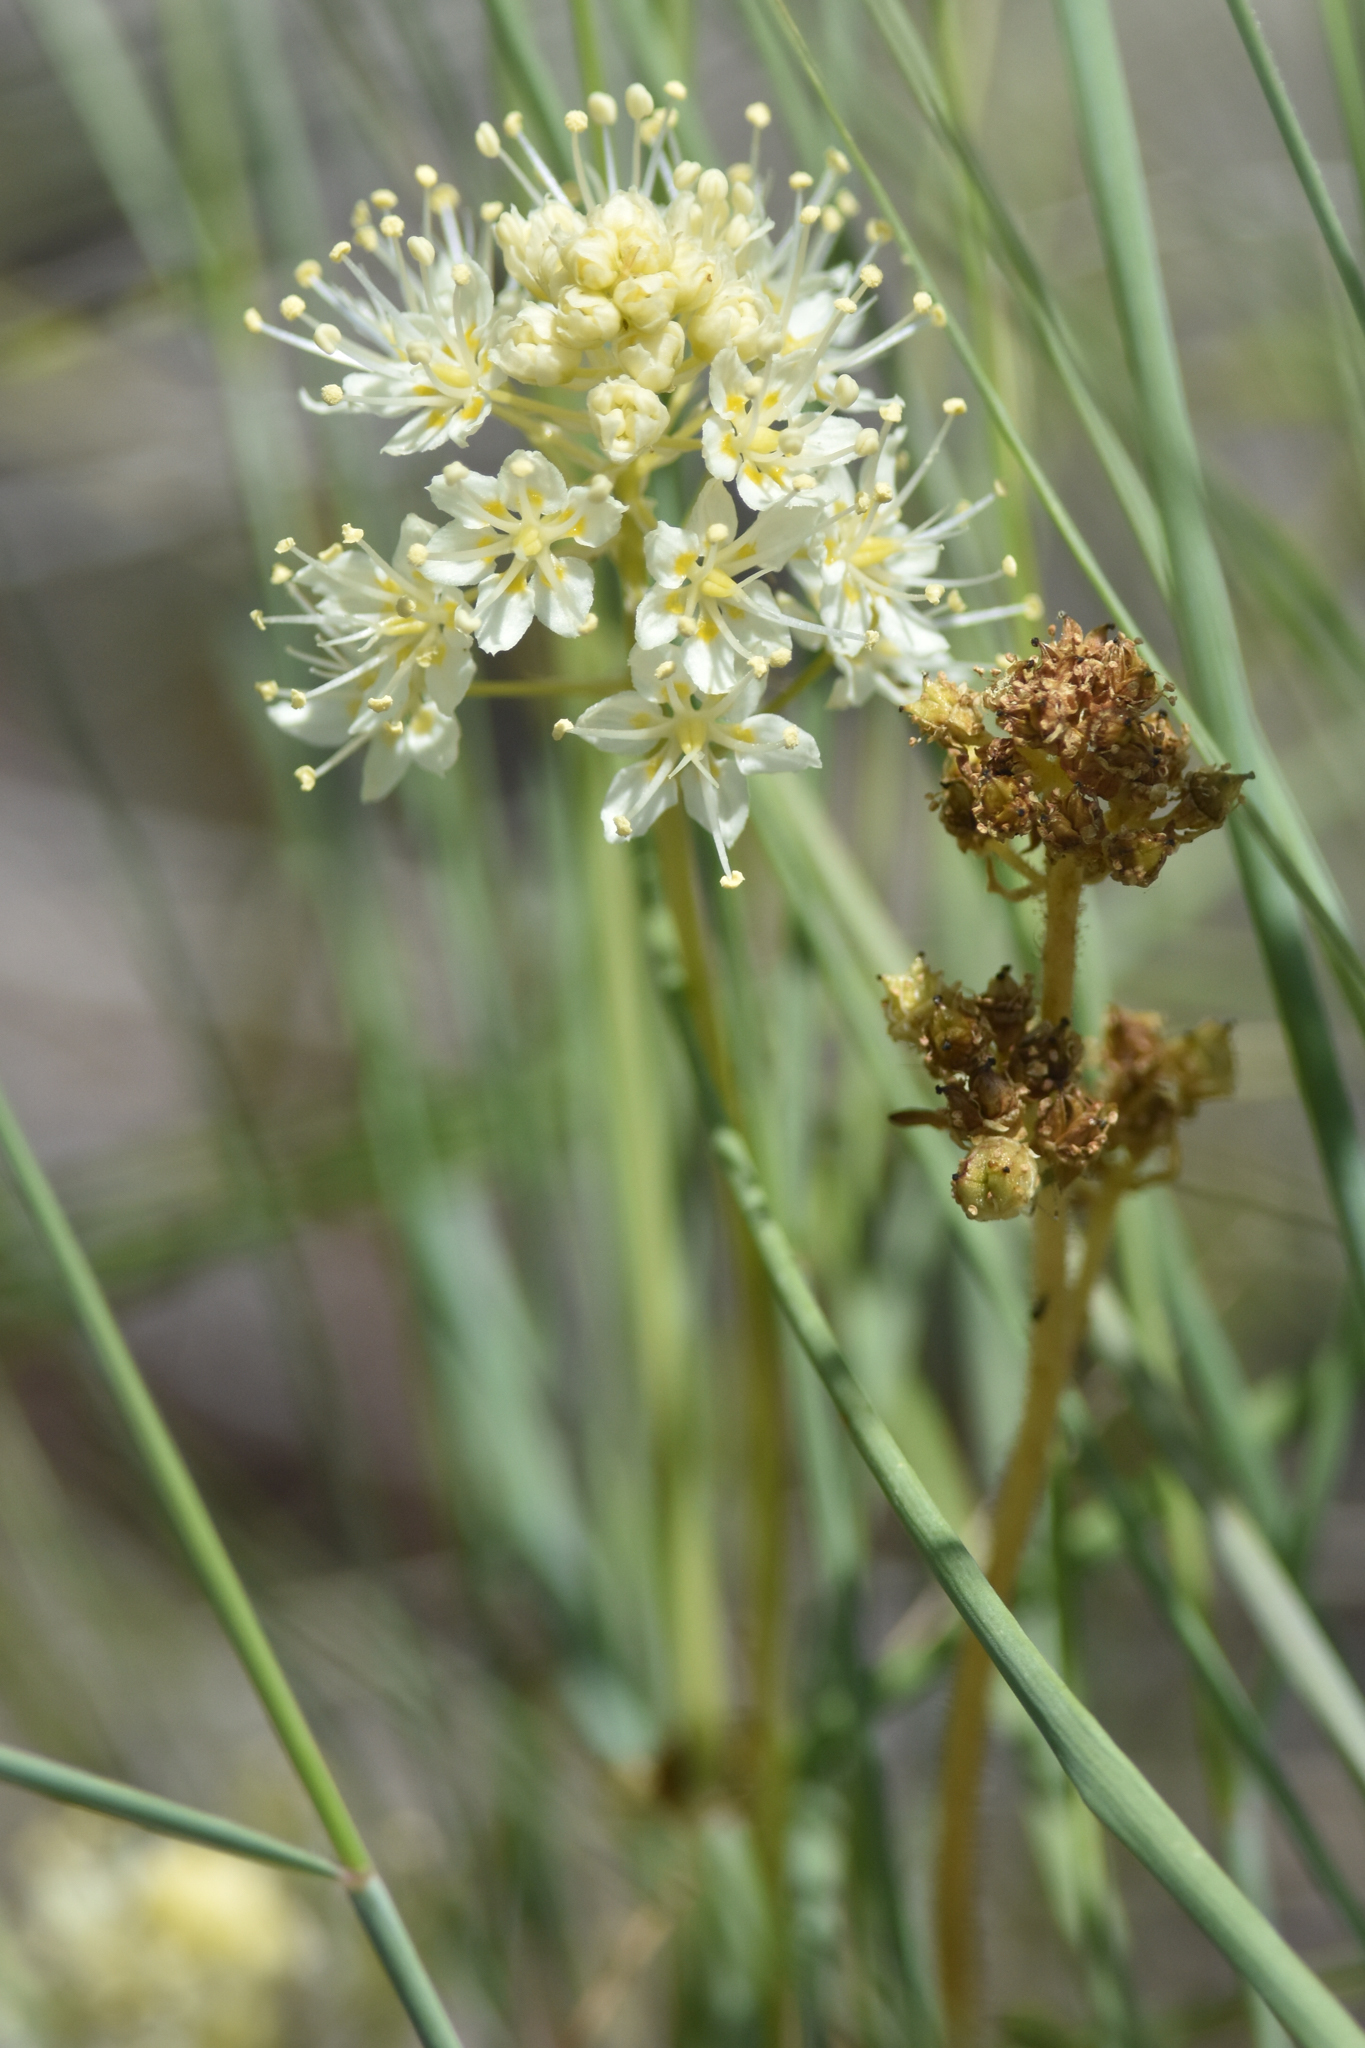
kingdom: Plantae
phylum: Tracheophyta
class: Liliopsida
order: Liliales
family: Melanthiaceae
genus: Toxicoscordion
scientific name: Toxicoscordion venenosum
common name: Meadow death camas
